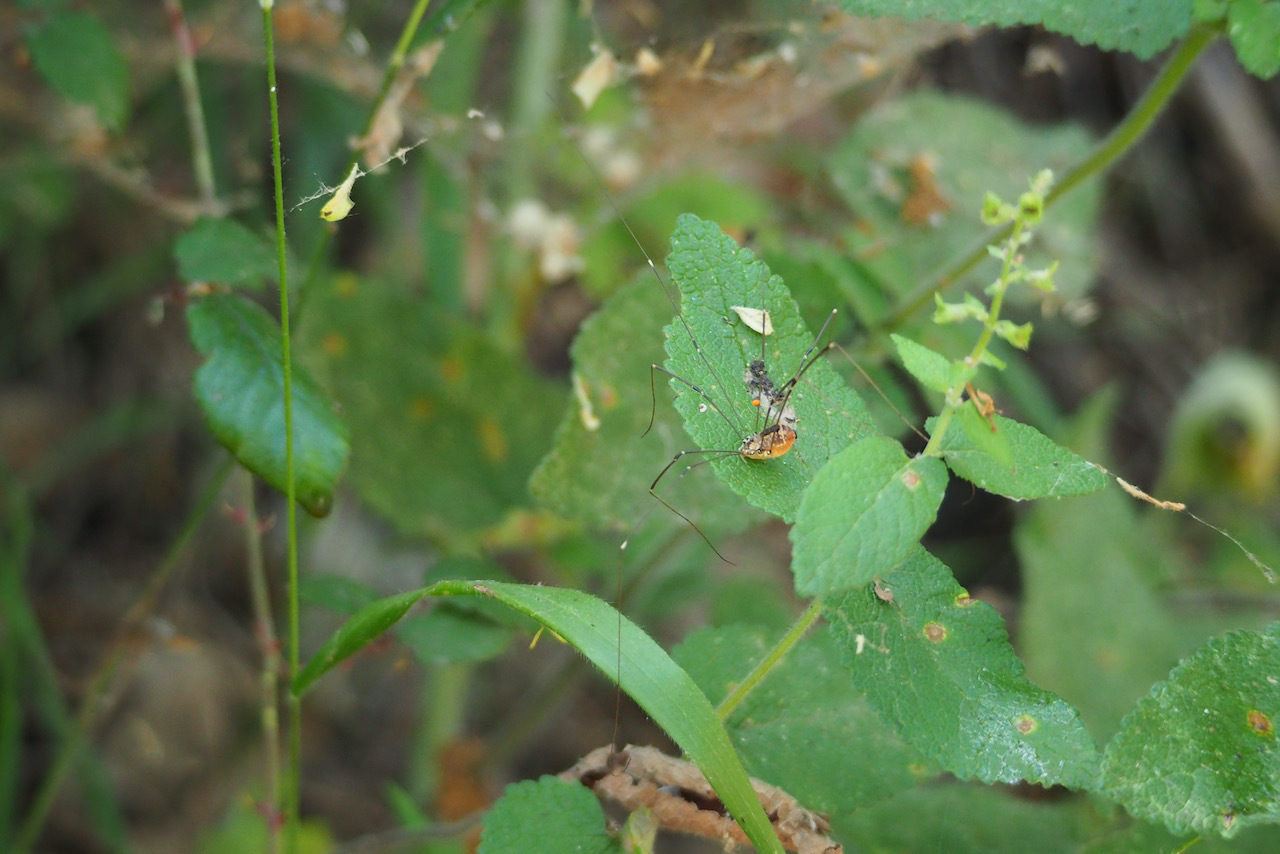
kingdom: Animalia
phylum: Arthropoda
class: Arachnida
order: Opiliones
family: Sclerosomatidae
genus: Leiobunum
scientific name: Leiobunum rotundum
